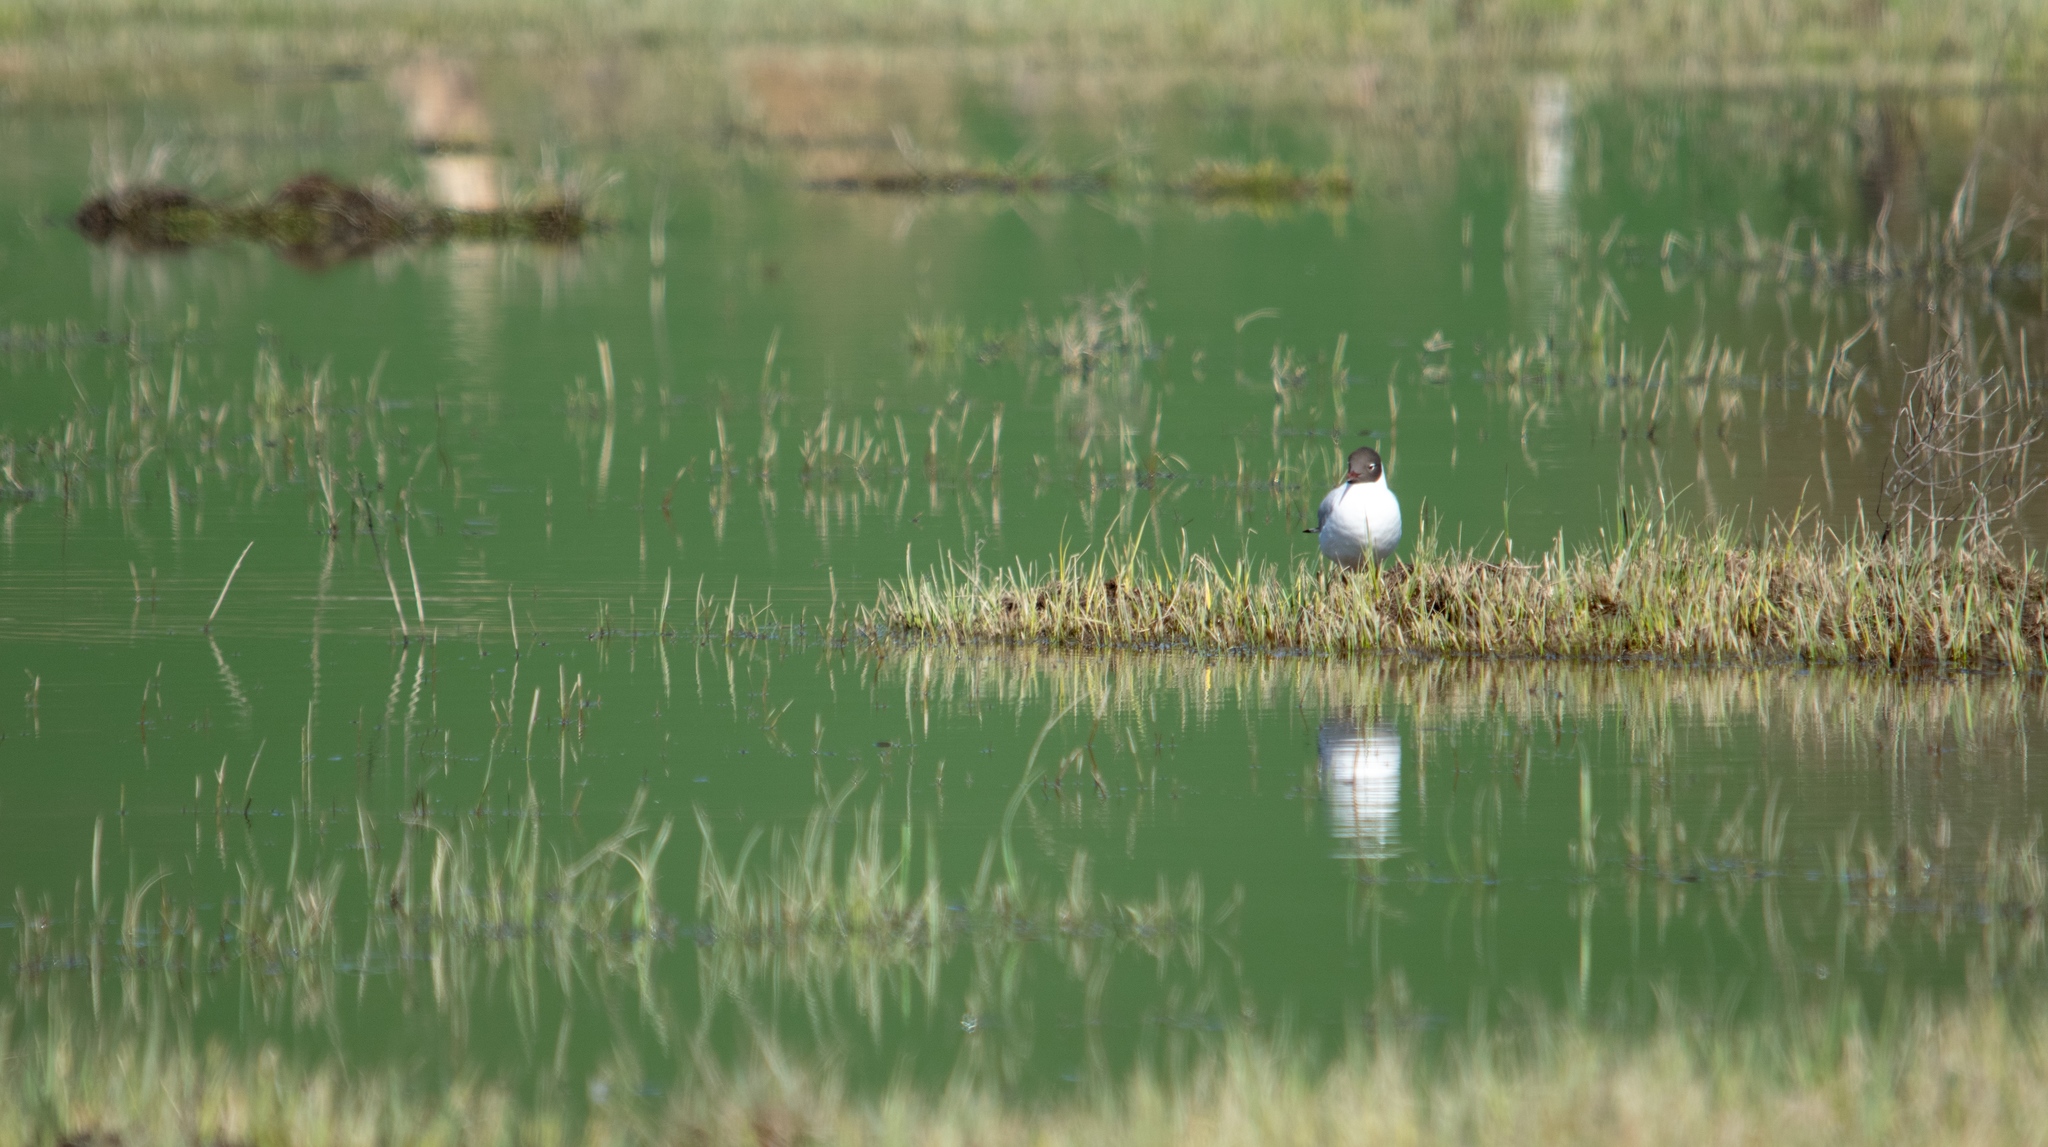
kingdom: Animalia
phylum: Chordata
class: Aves
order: Charadriiformes
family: Laridae
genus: Chroicocephalus
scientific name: Chroicocephalus ridibundus
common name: Black-headed gull
